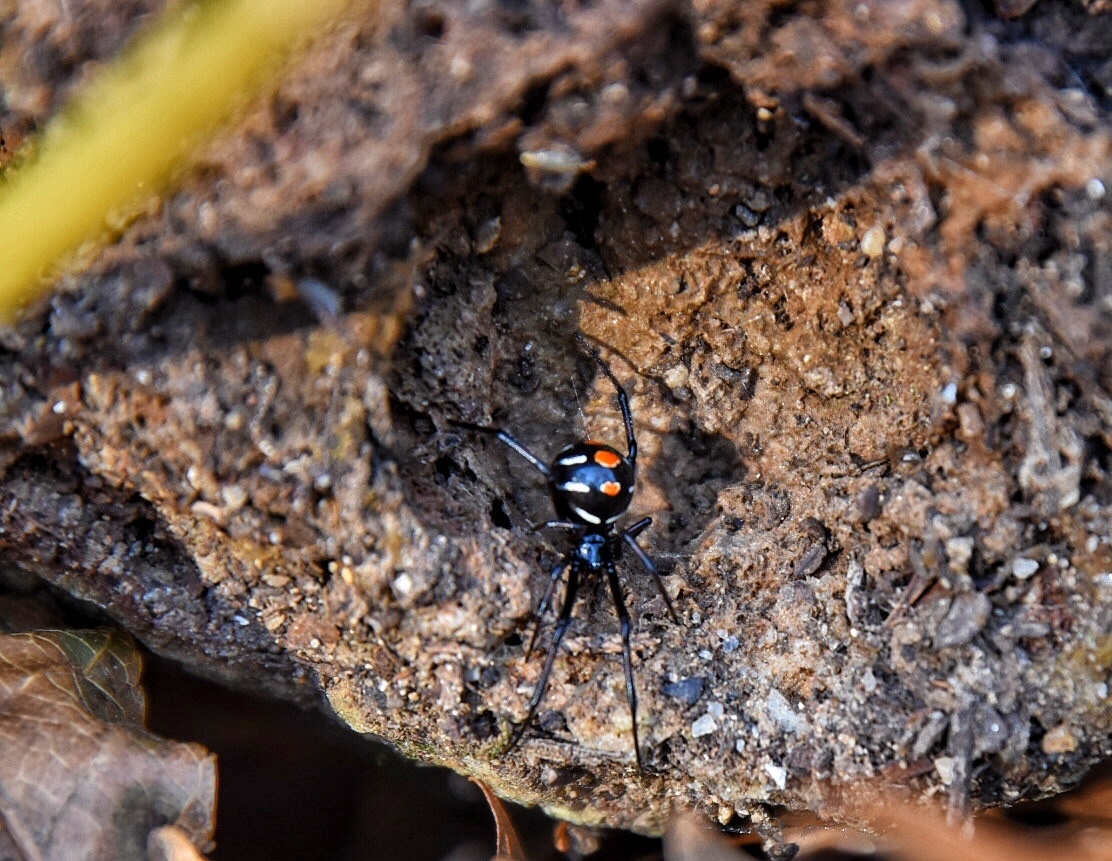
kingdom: Animalia
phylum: Arthropoda
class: Arachnida
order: Araneae
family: Theridiidae
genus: Latrodectus
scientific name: Latrodectus variolus
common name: Northern black widow
